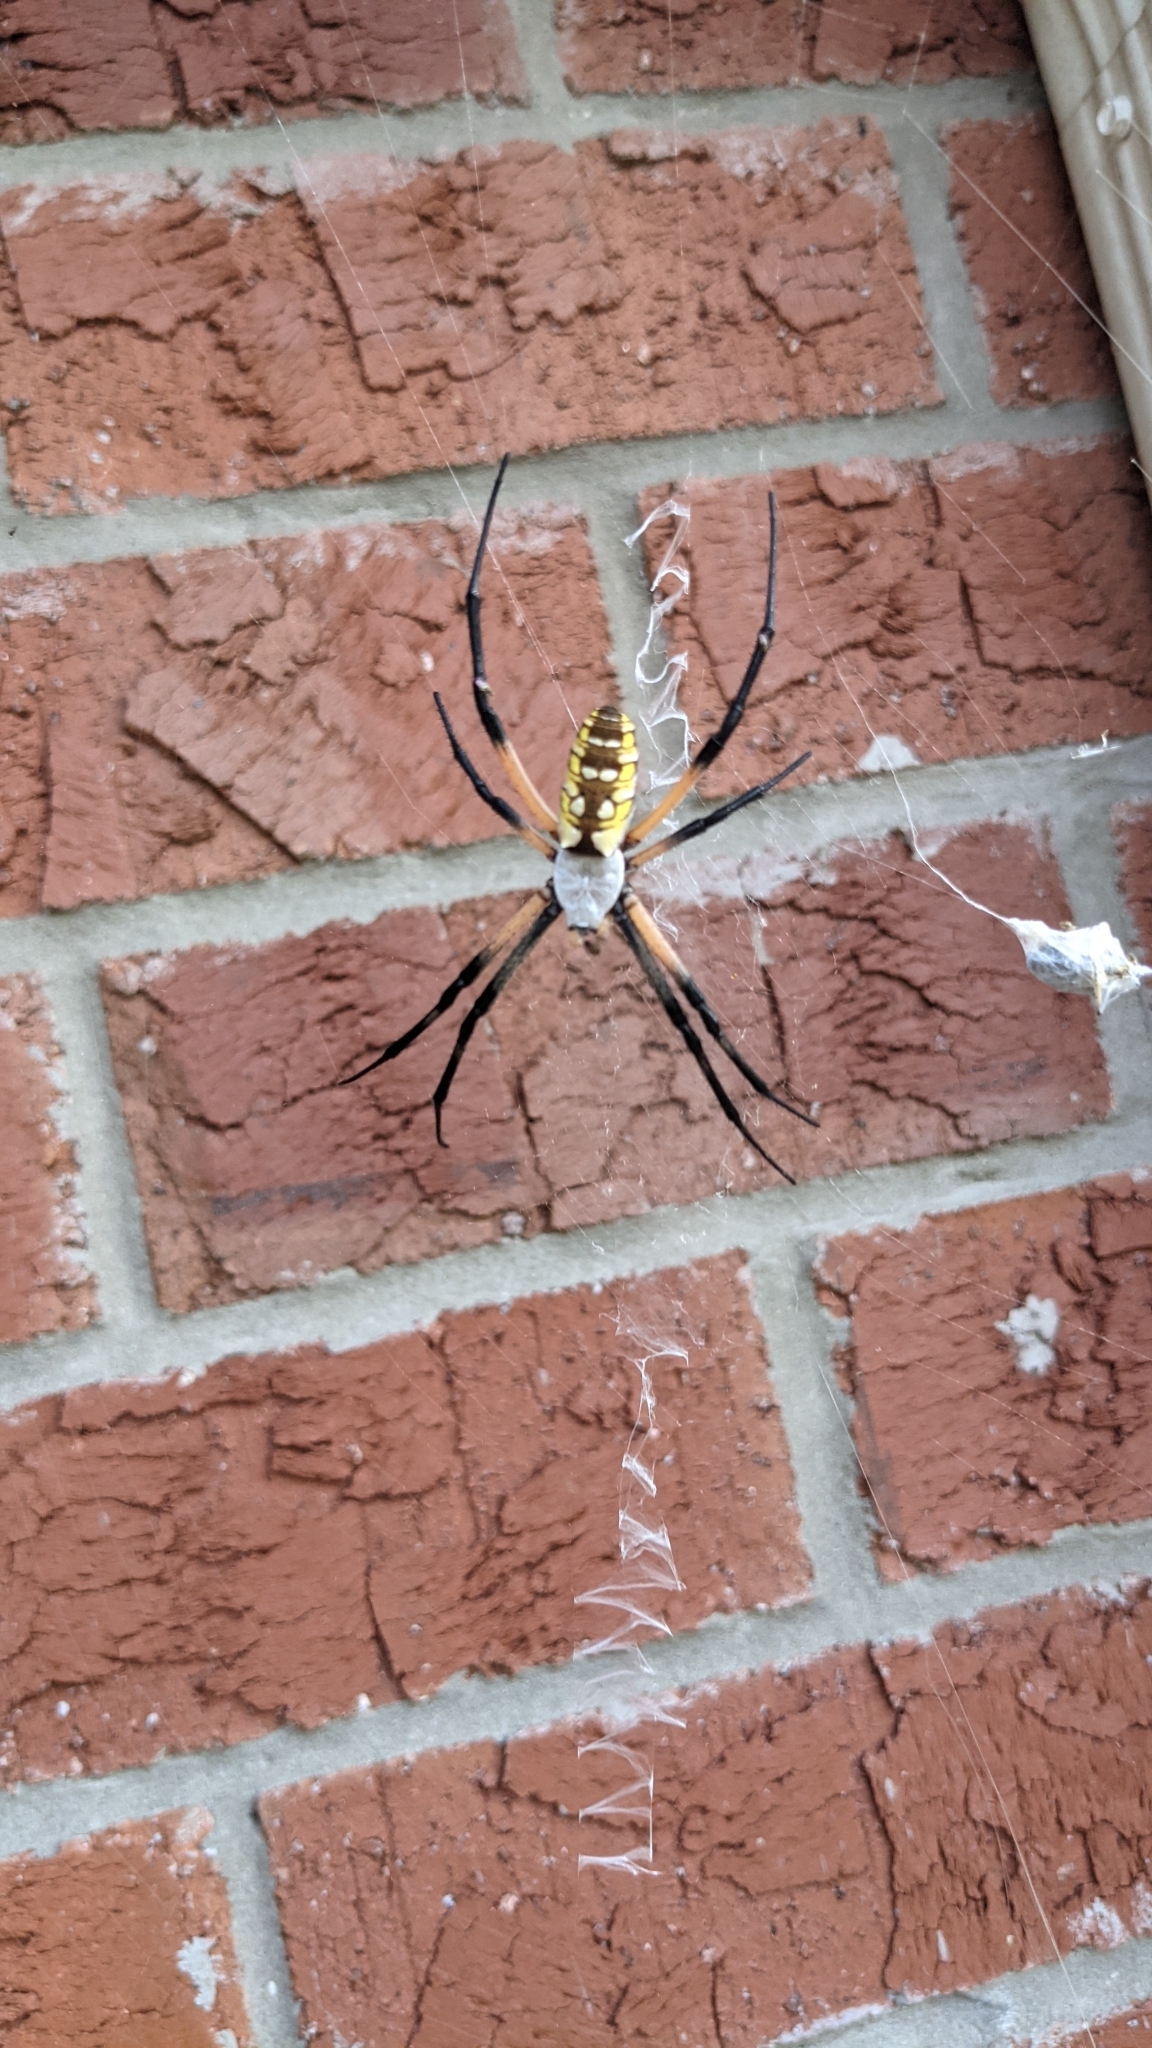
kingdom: Animalia
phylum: Arthropoda
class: Arachnida
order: Araneae
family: Araneidae
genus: Argiope
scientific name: Argiope aurantia
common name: Orb weavers
